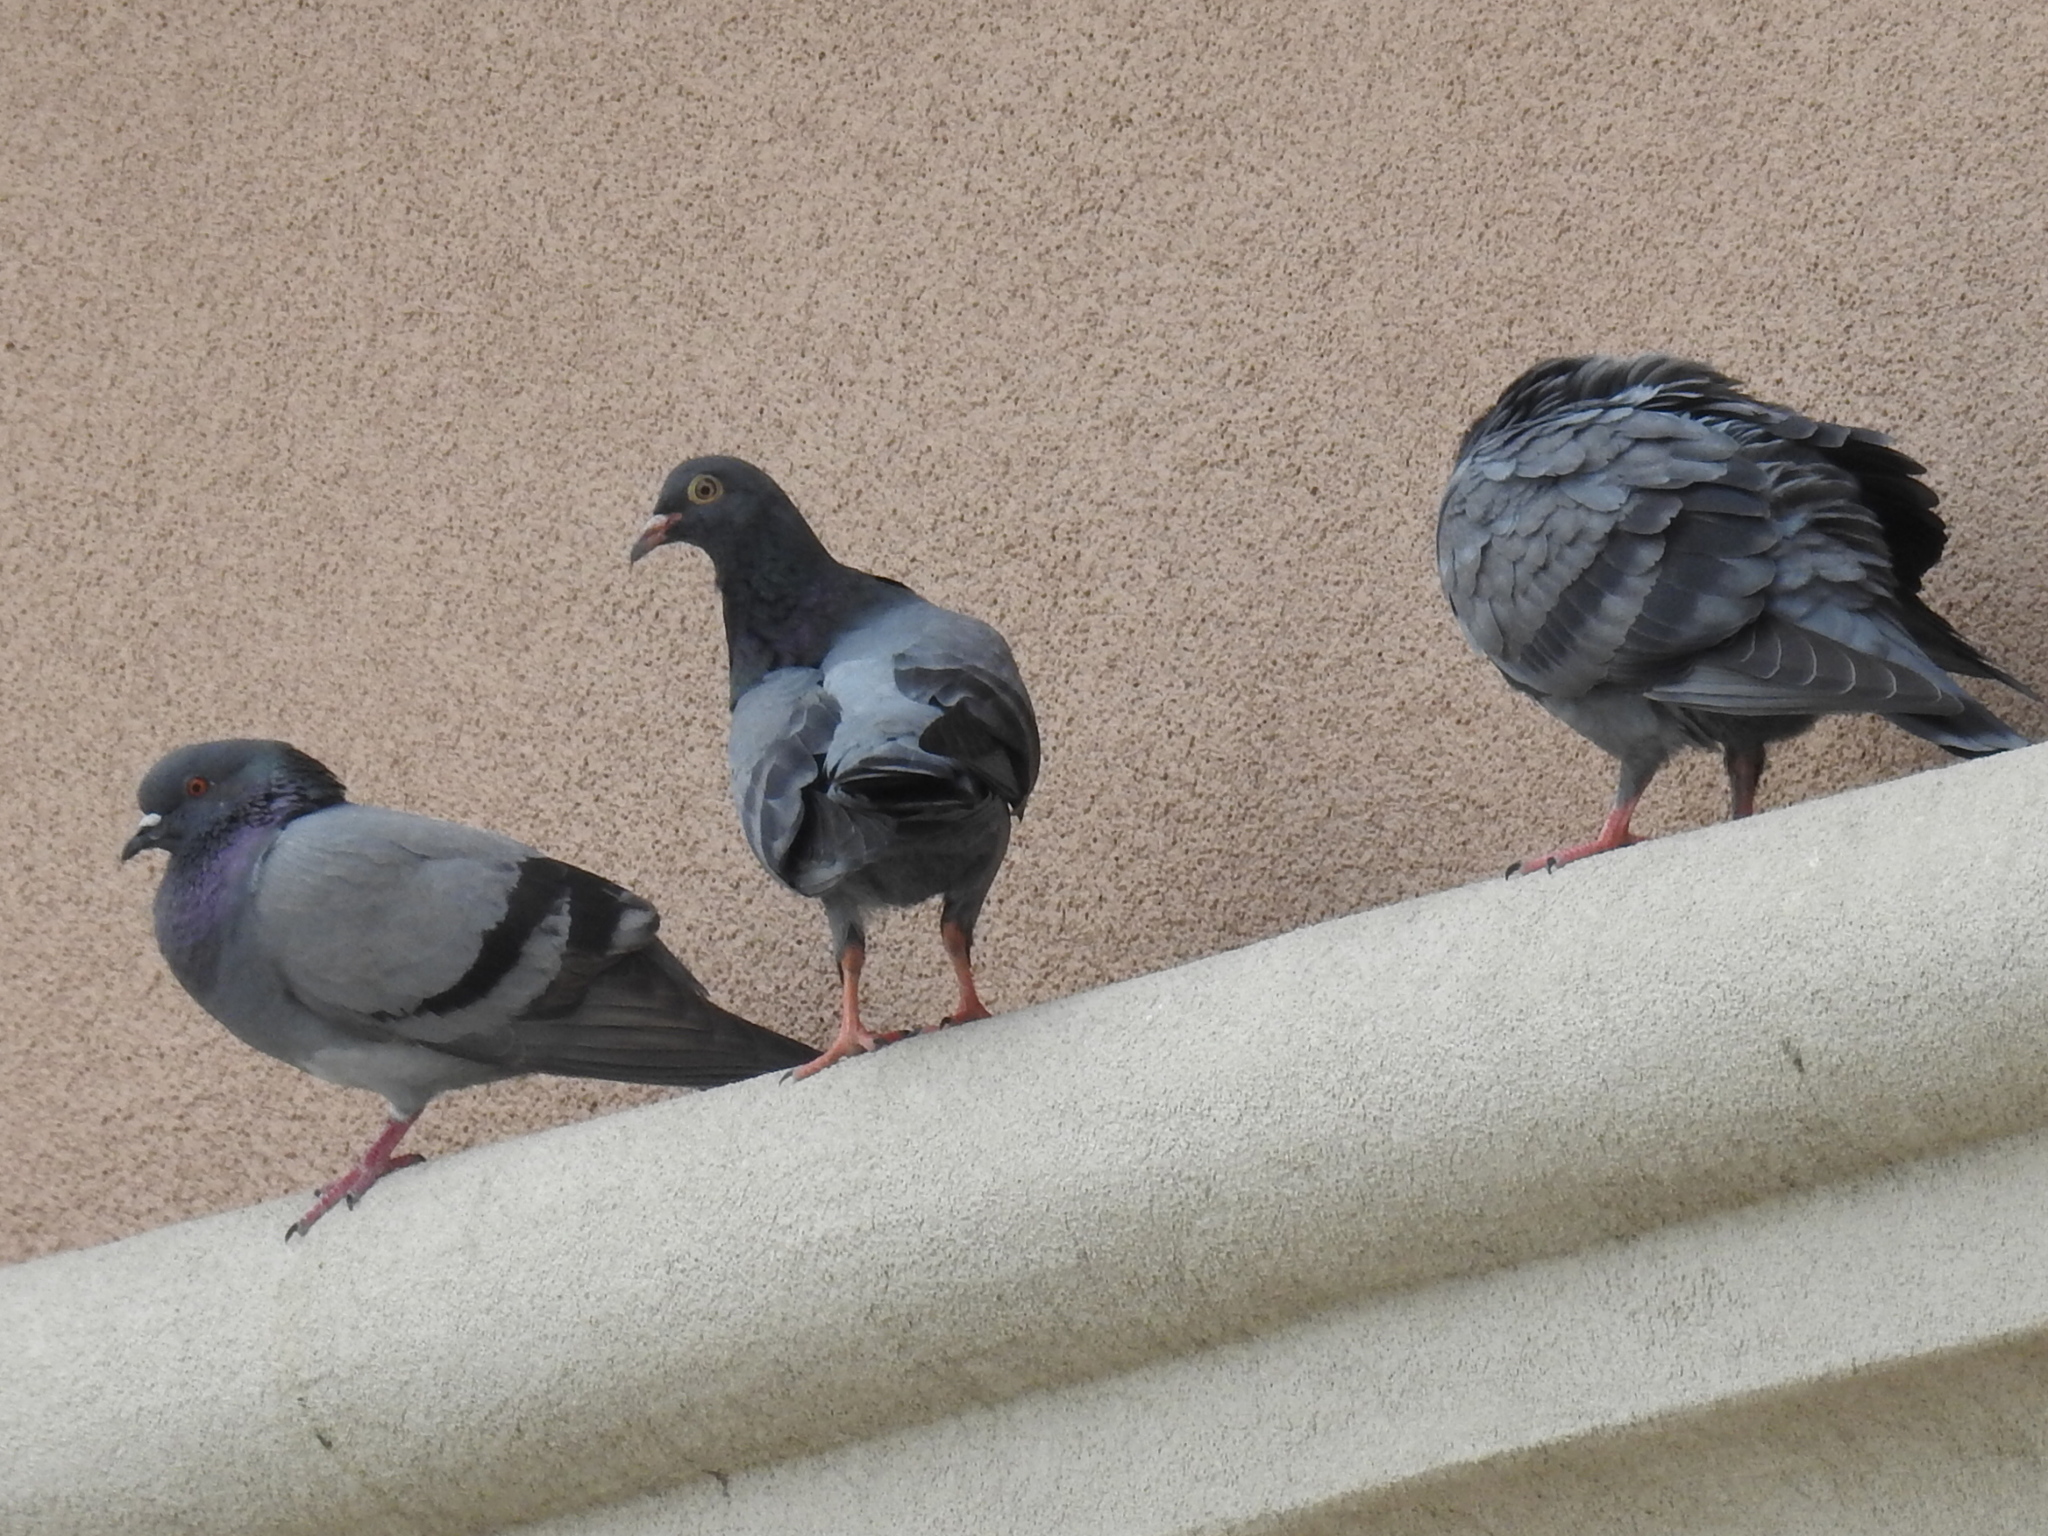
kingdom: Animalia
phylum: Chordata
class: Aves
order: Columbiformes
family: Columbidae
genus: Columba
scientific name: Columba livia
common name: Rock pigeon
